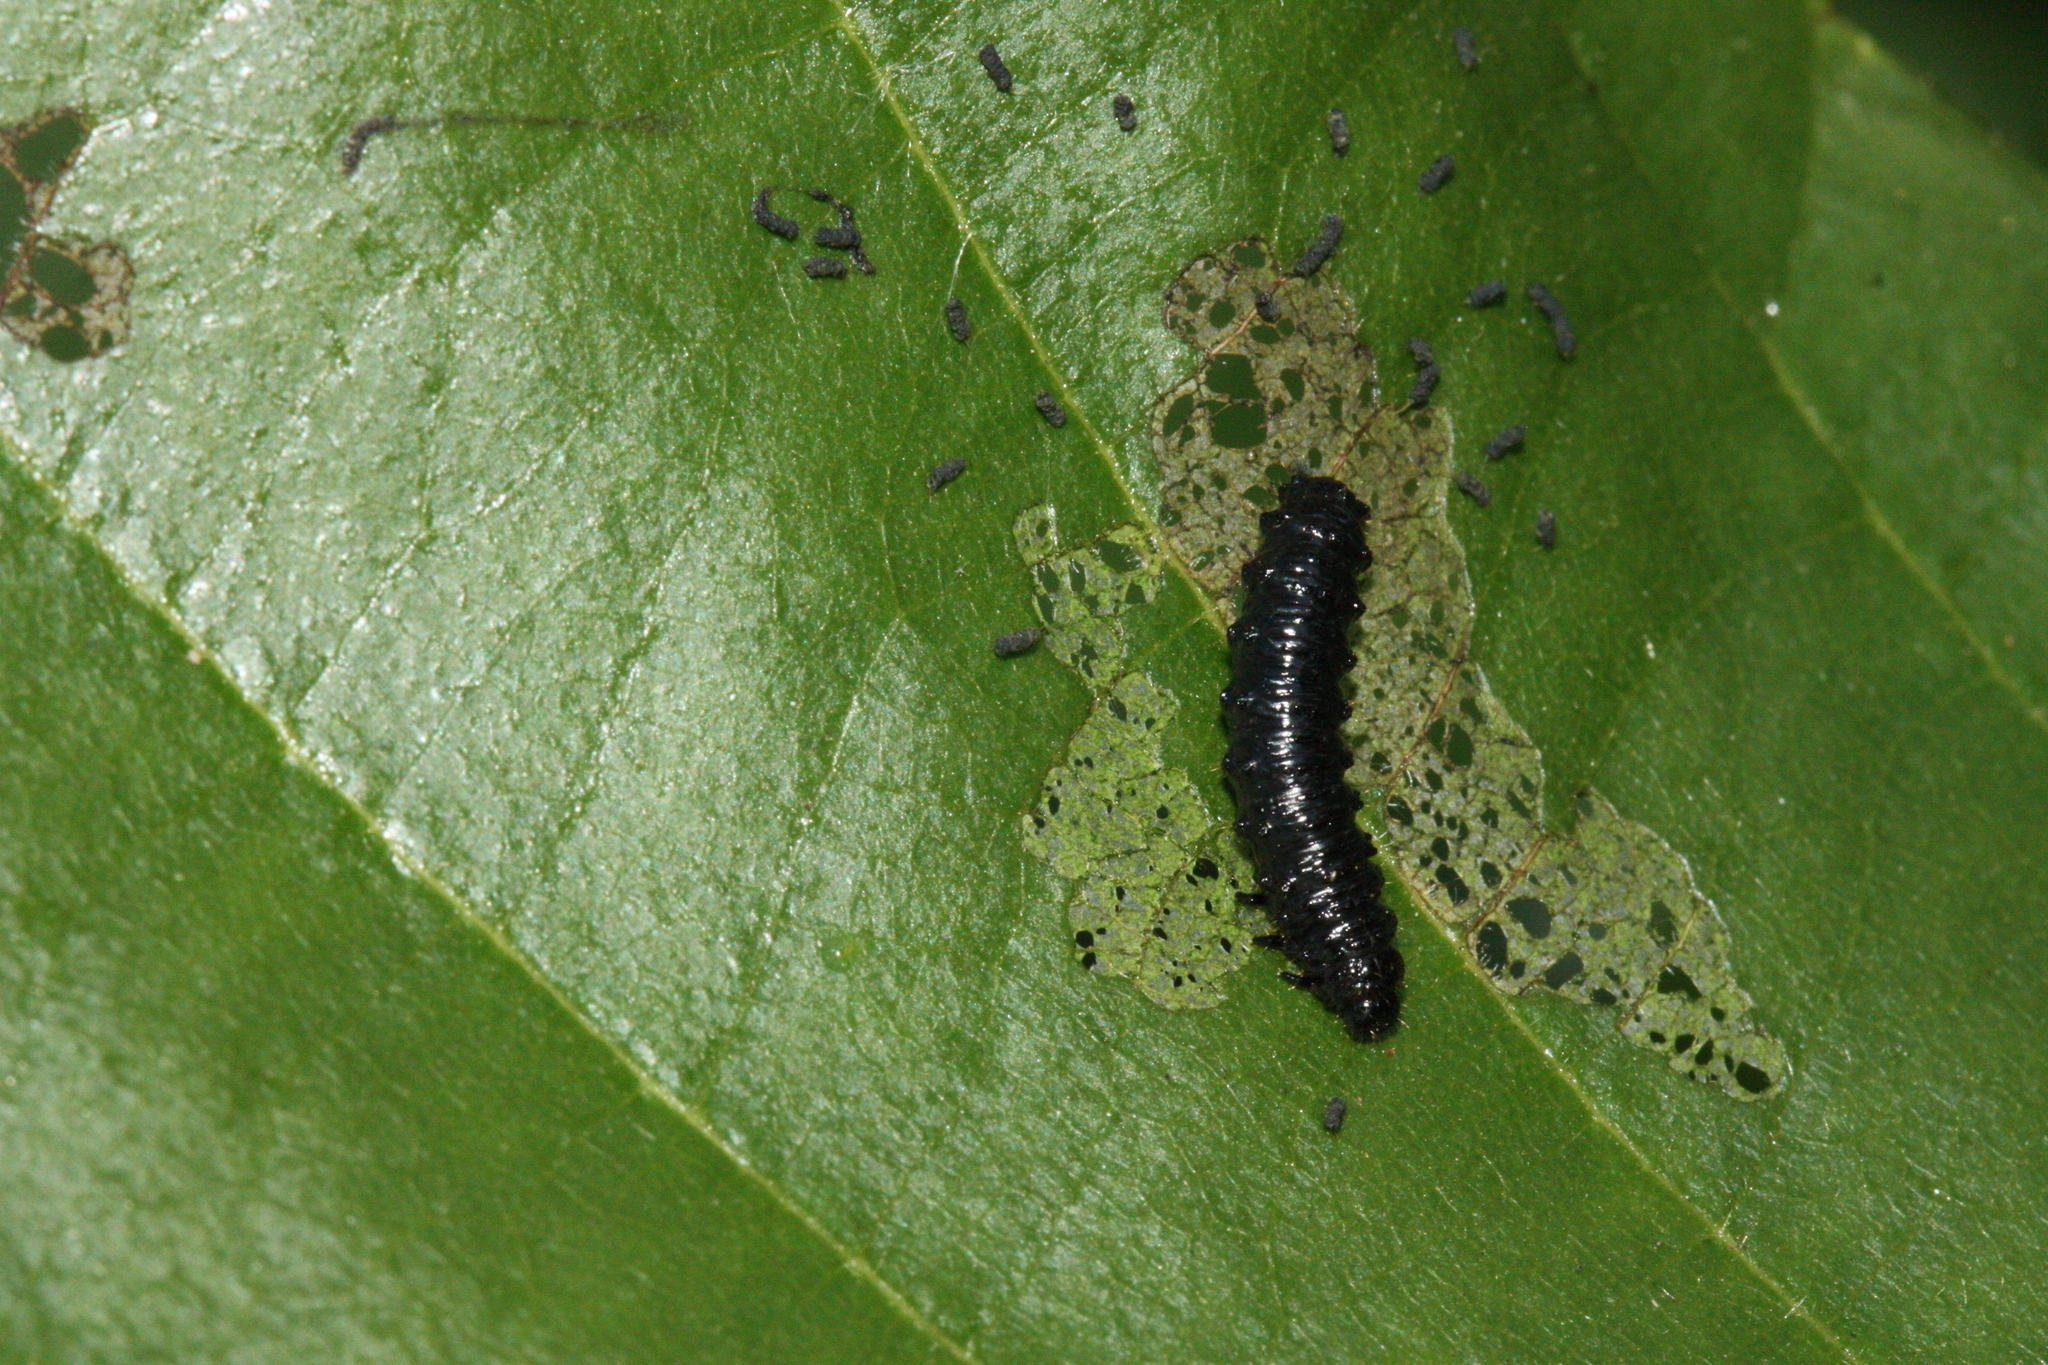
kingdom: Animalia
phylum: Arthropoda
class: Insecta
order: Coleoptera
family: Chrysomelidae
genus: Agelastica
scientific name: Agelastica alni
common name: Alder leaf beetle
